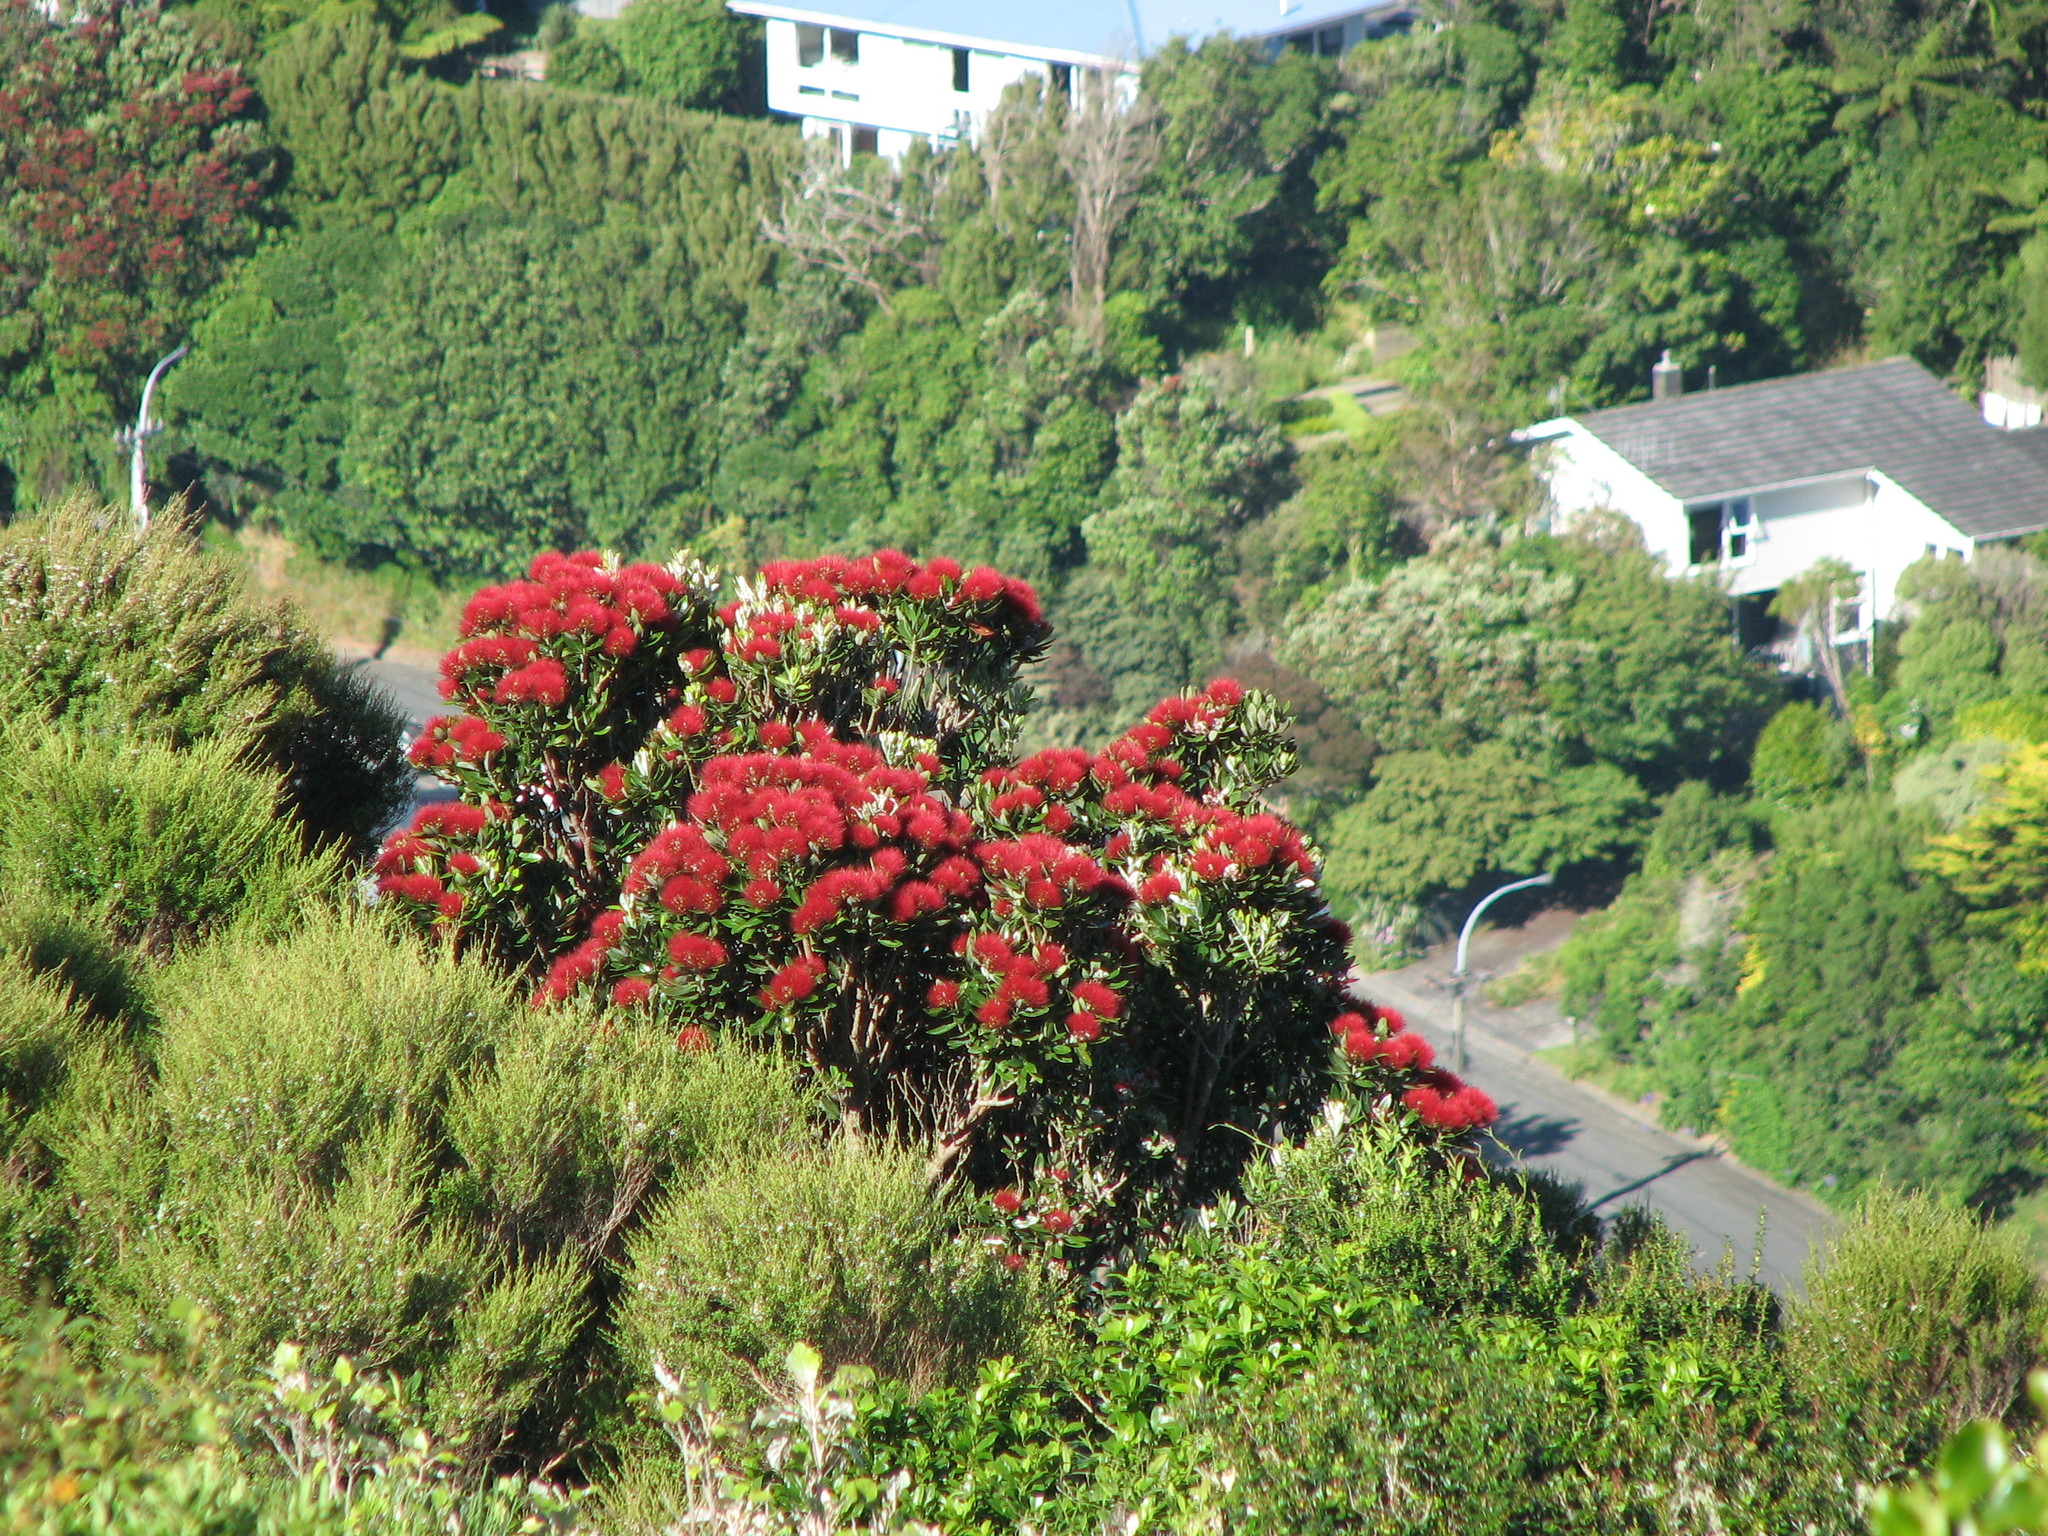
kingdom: Plantae
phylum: Tracheophyta
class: Magnoliopsida
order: Myrtales
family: Myrtaceae
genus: Metrosideros
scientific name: Metrosideros excelsa
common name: New zealand christmastree
